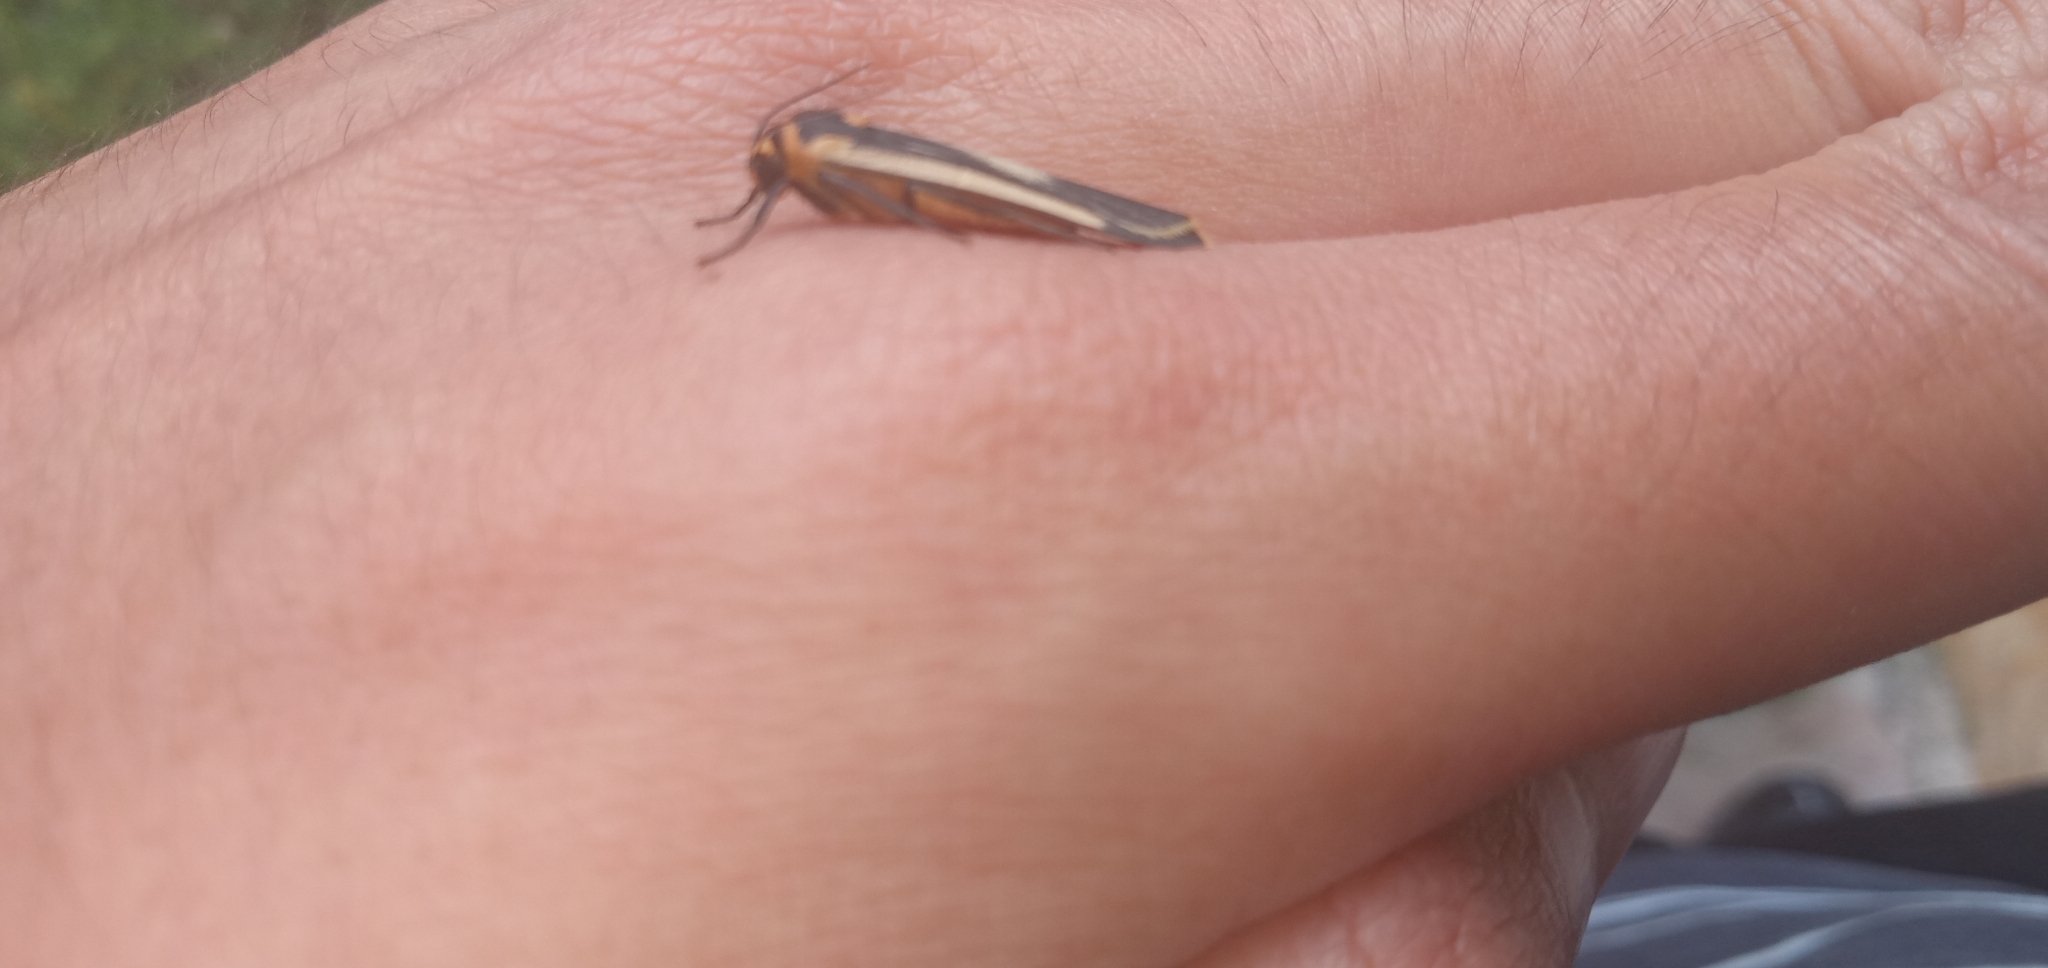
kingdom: Animalia
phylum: Arthropoda
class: Insecta
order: Lepidoptera
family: Erebidae
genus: Brunia
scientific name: Brunia replana
